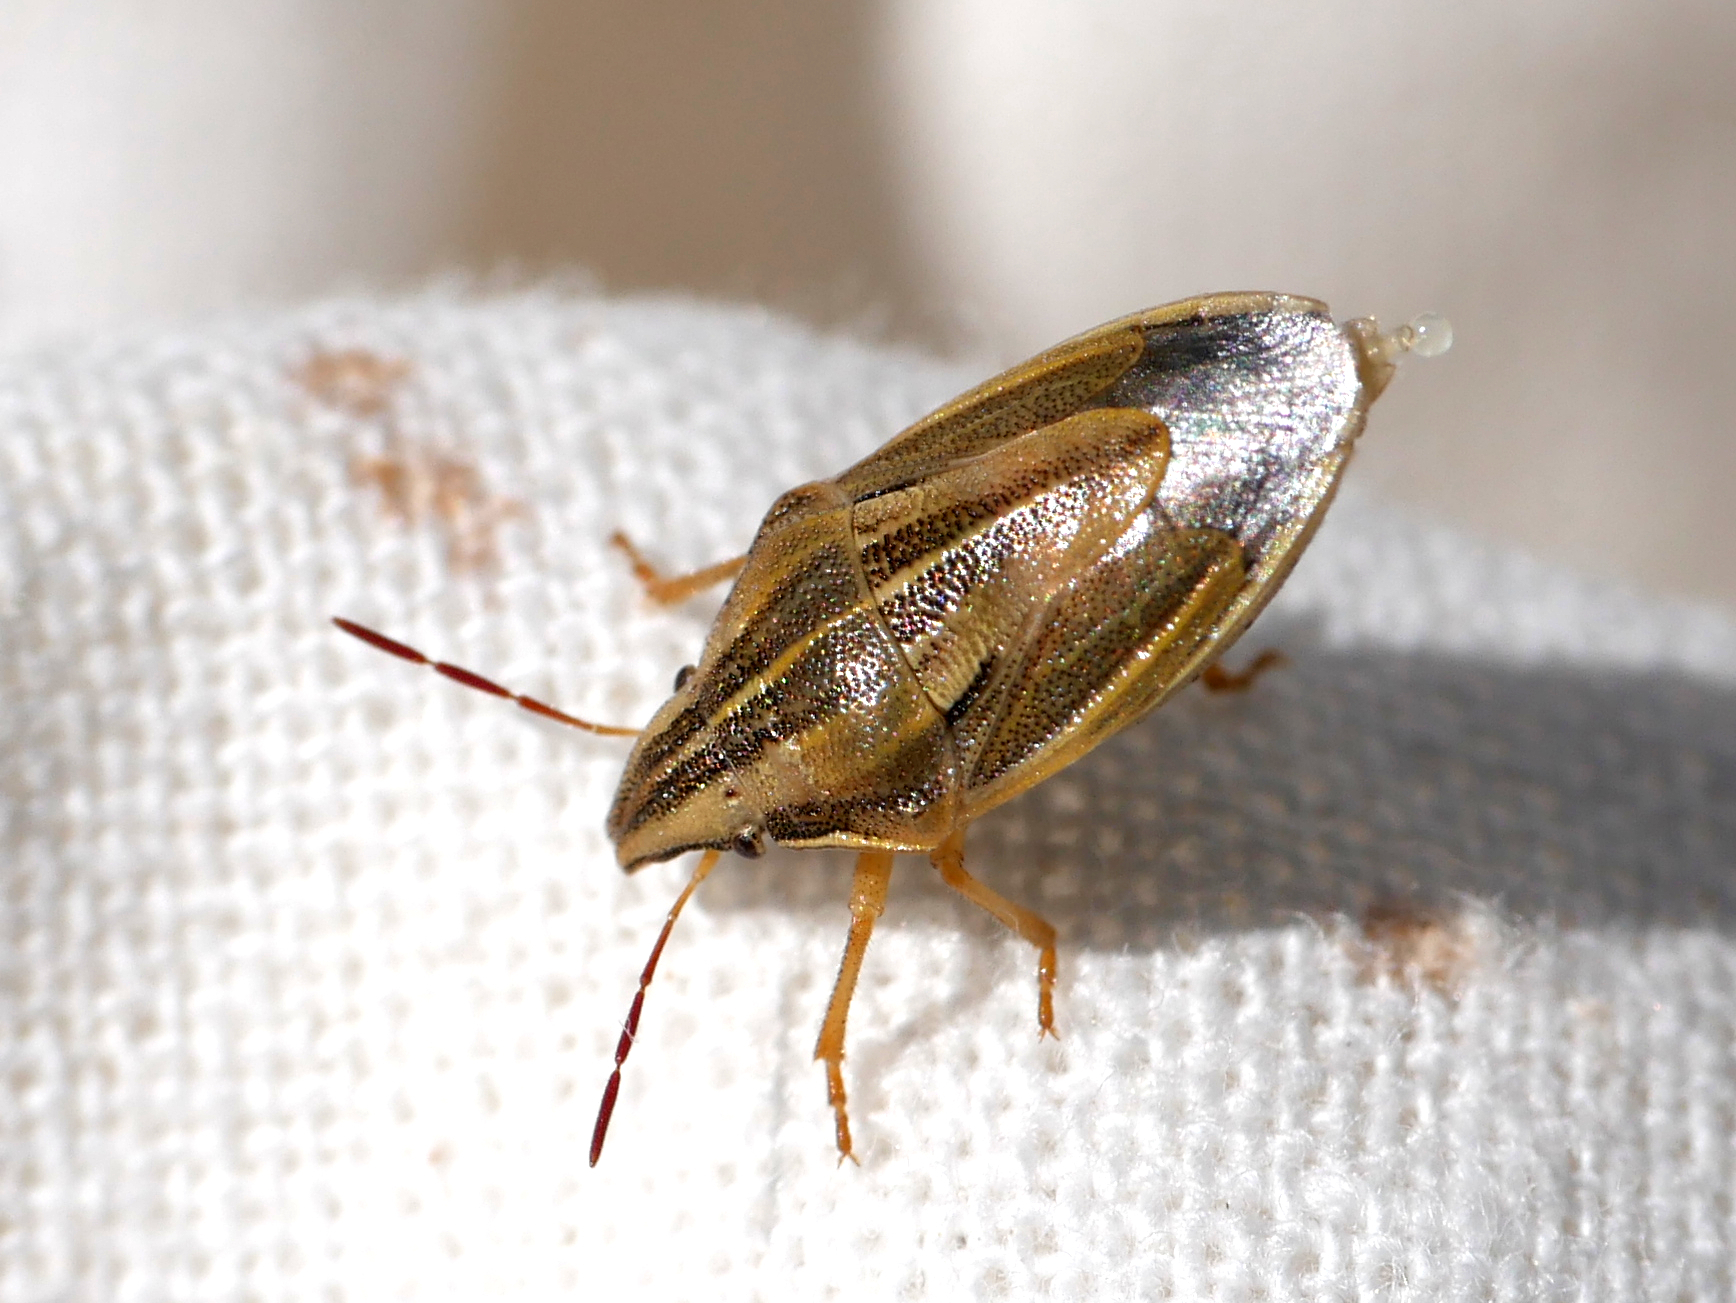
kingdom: Animalia
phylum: Arthropoda
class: Insecta
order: Hemiptera
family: Pentatomidae
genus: Aelia
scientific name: Aelia acuminata
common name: Bishop's mitre
